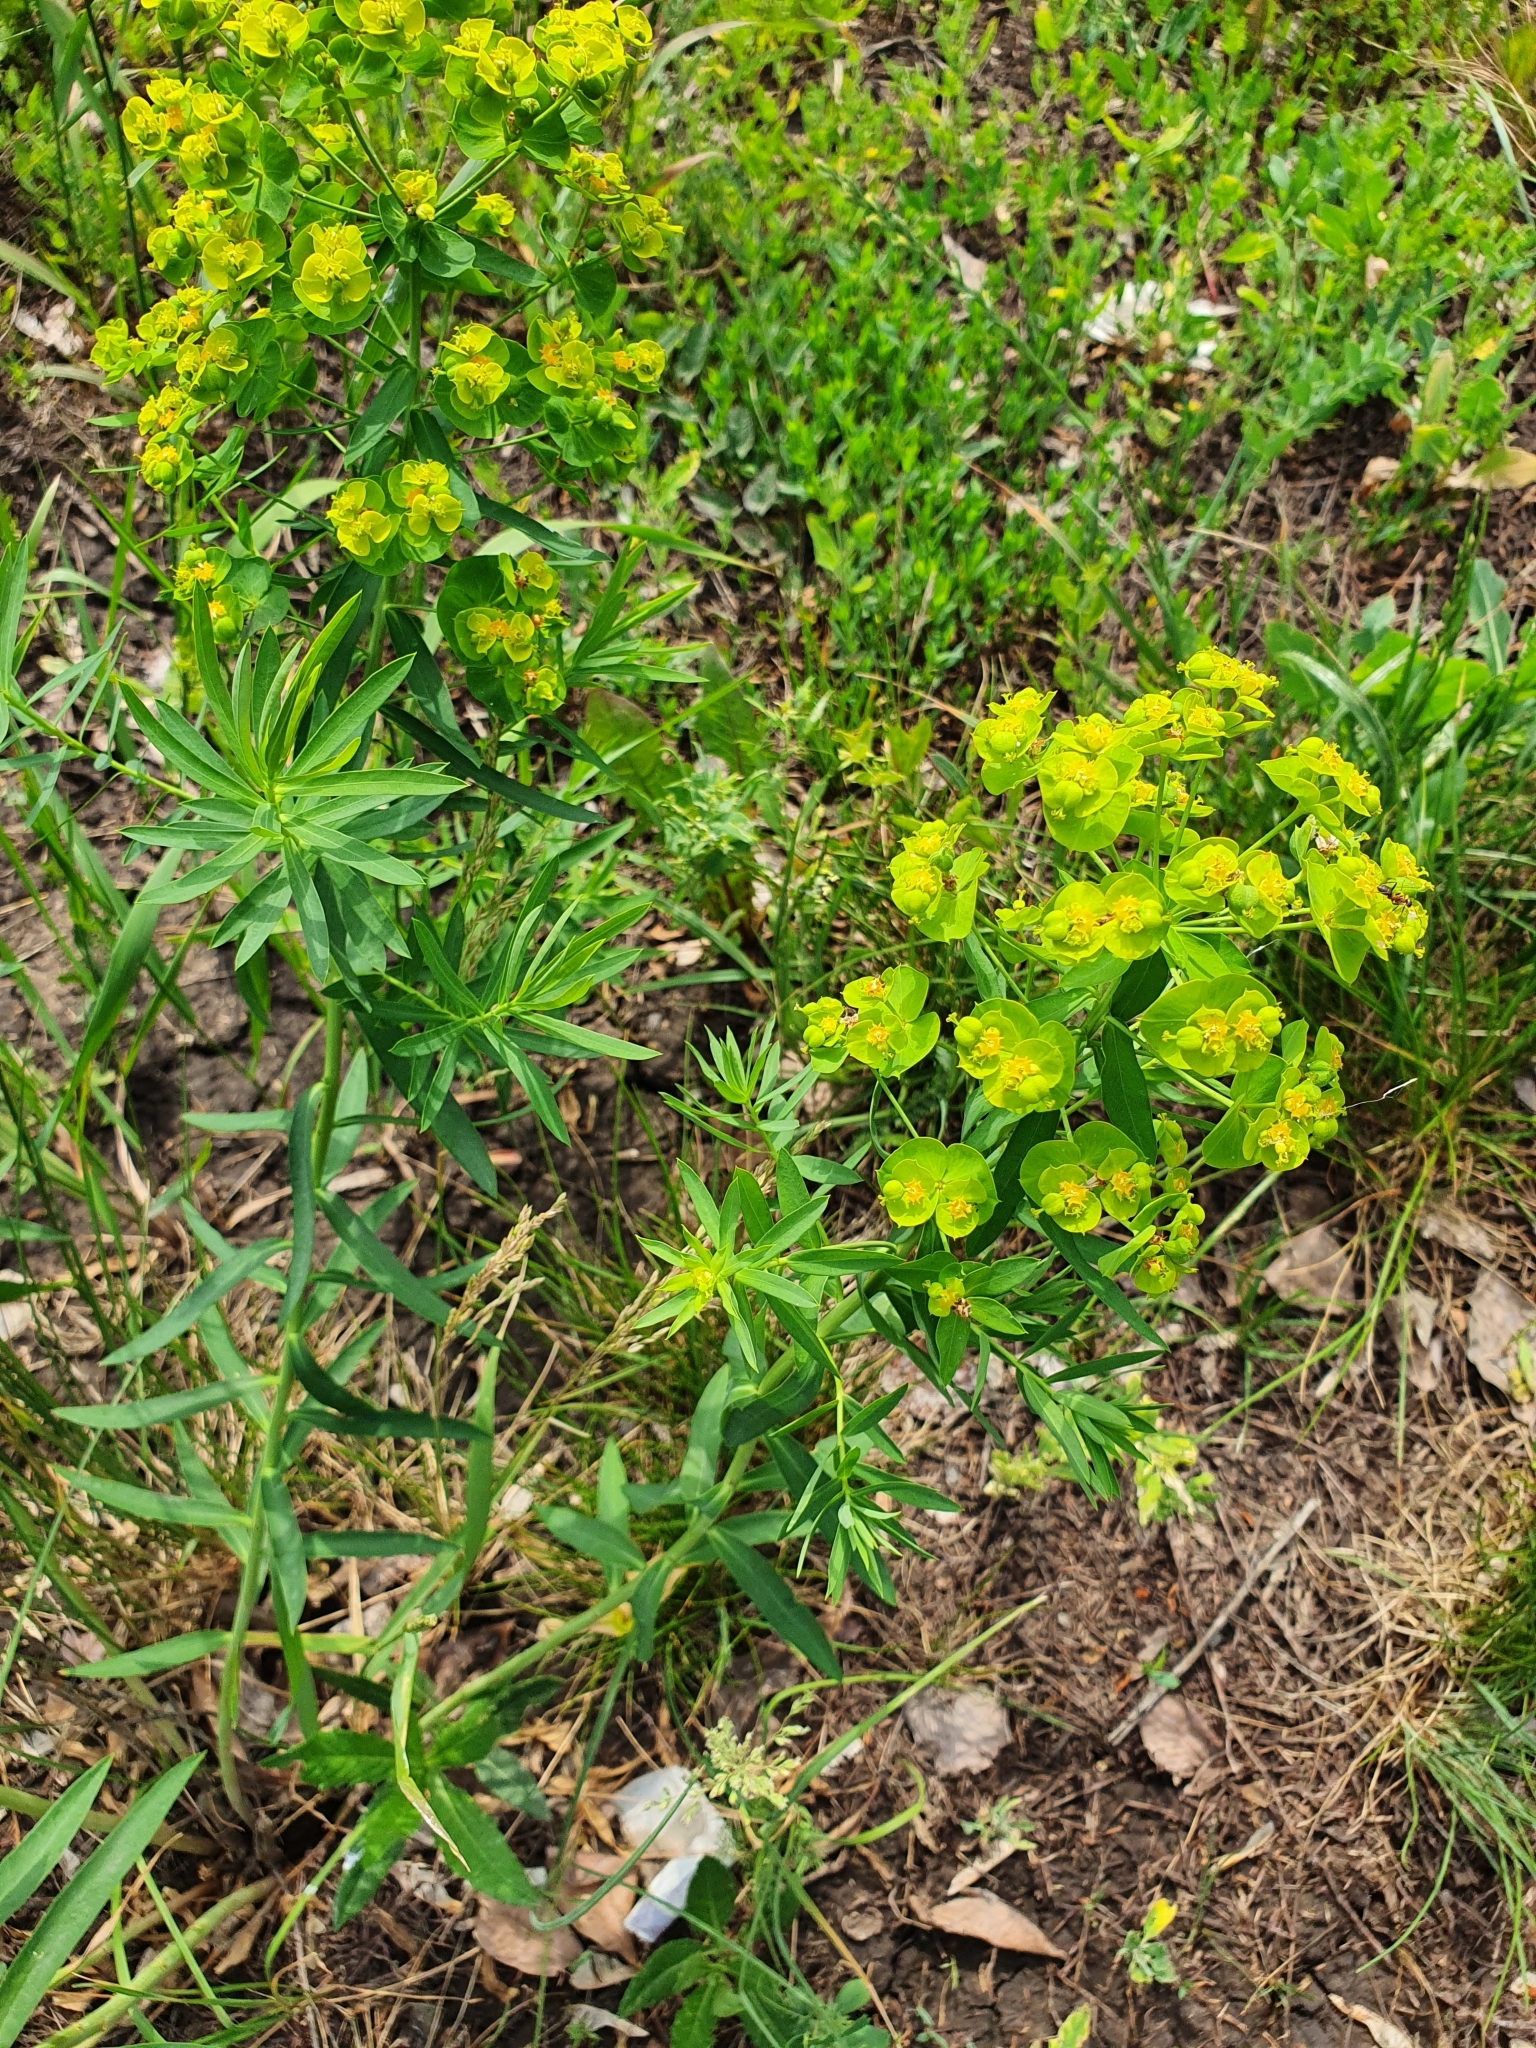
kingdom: Plantae
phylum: Tracheophyta
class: Magnoliopsida
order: Malpighiales
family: Euphorbiaceae
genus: Euphorbia
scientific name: Euphorbia virgata
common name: Leafy spurge
